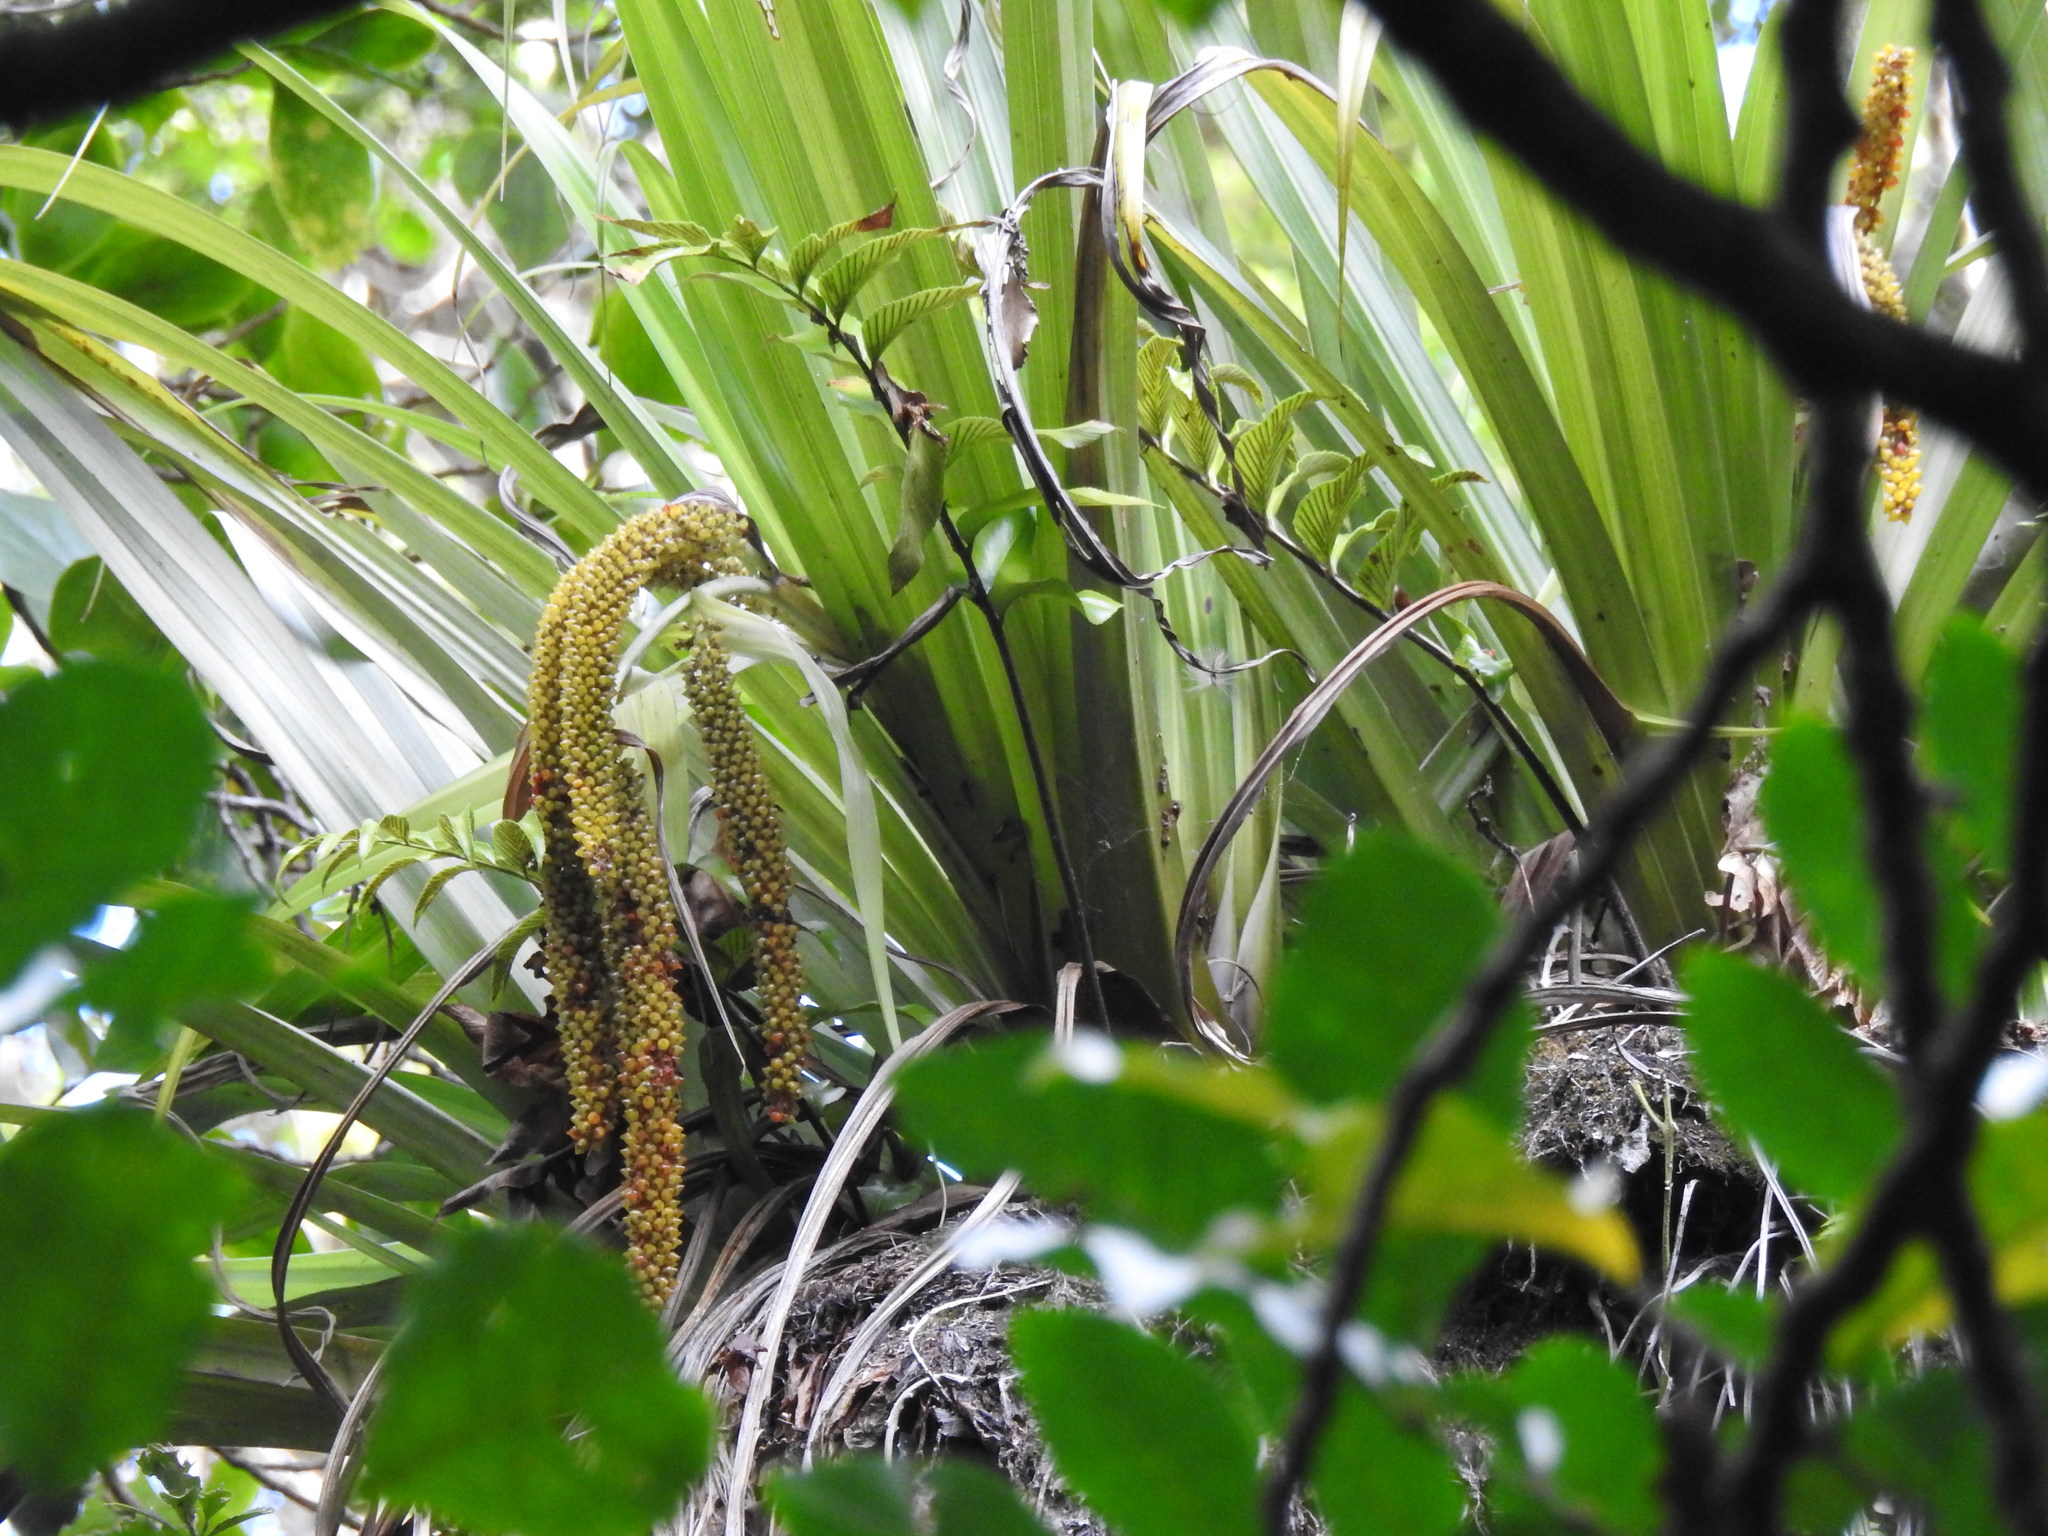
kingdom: Plantae
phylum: Tracheophyta
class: Liliopsida
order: Asparagales
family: Asteliaceae
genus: Astelia
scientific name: Astelia hastata
